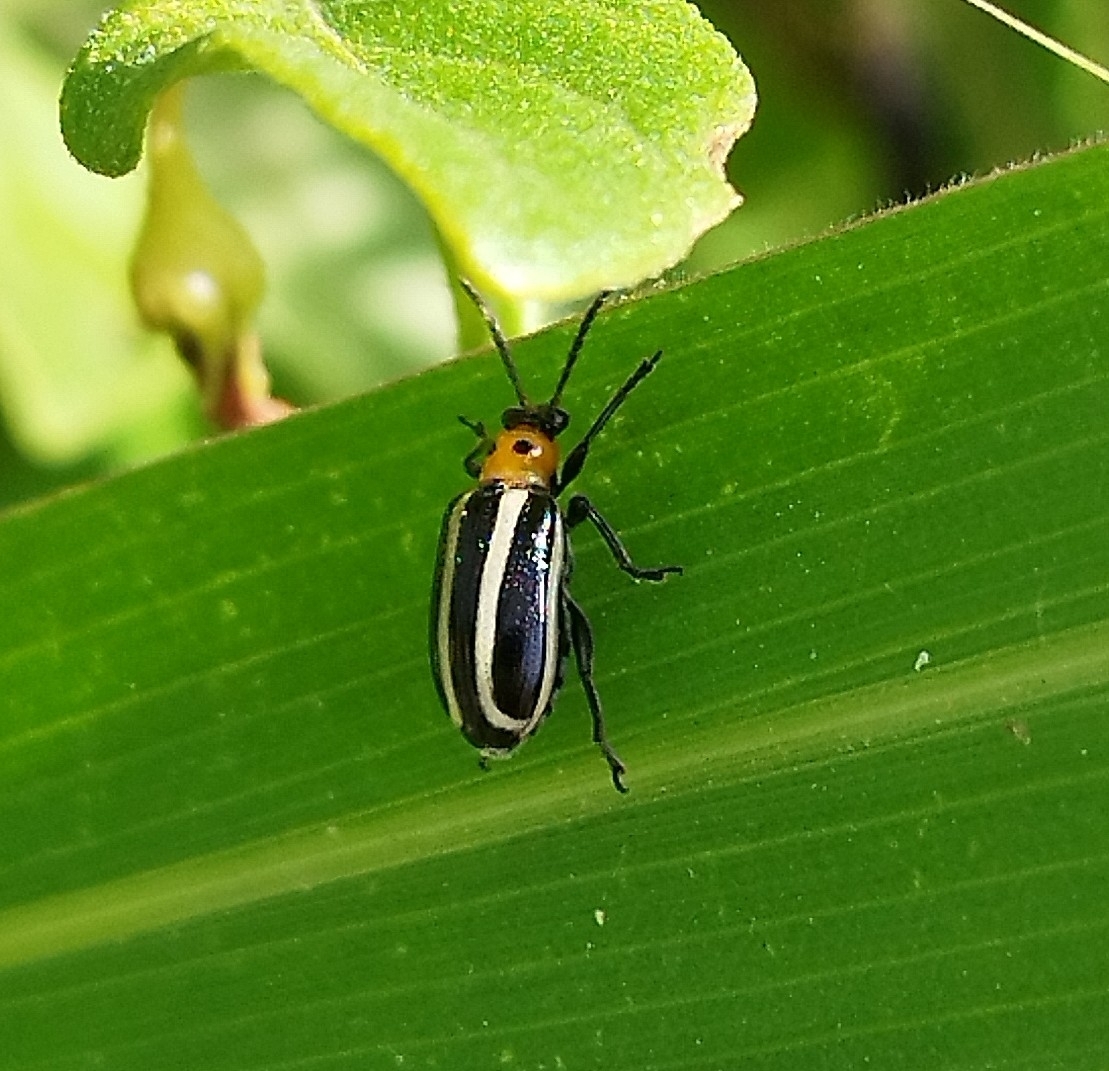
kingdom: Animalia
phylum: Arthropoda
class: Insecta
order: Coleoptera
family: Chrysomelidae
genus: Lema
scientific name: Lema bilineata
